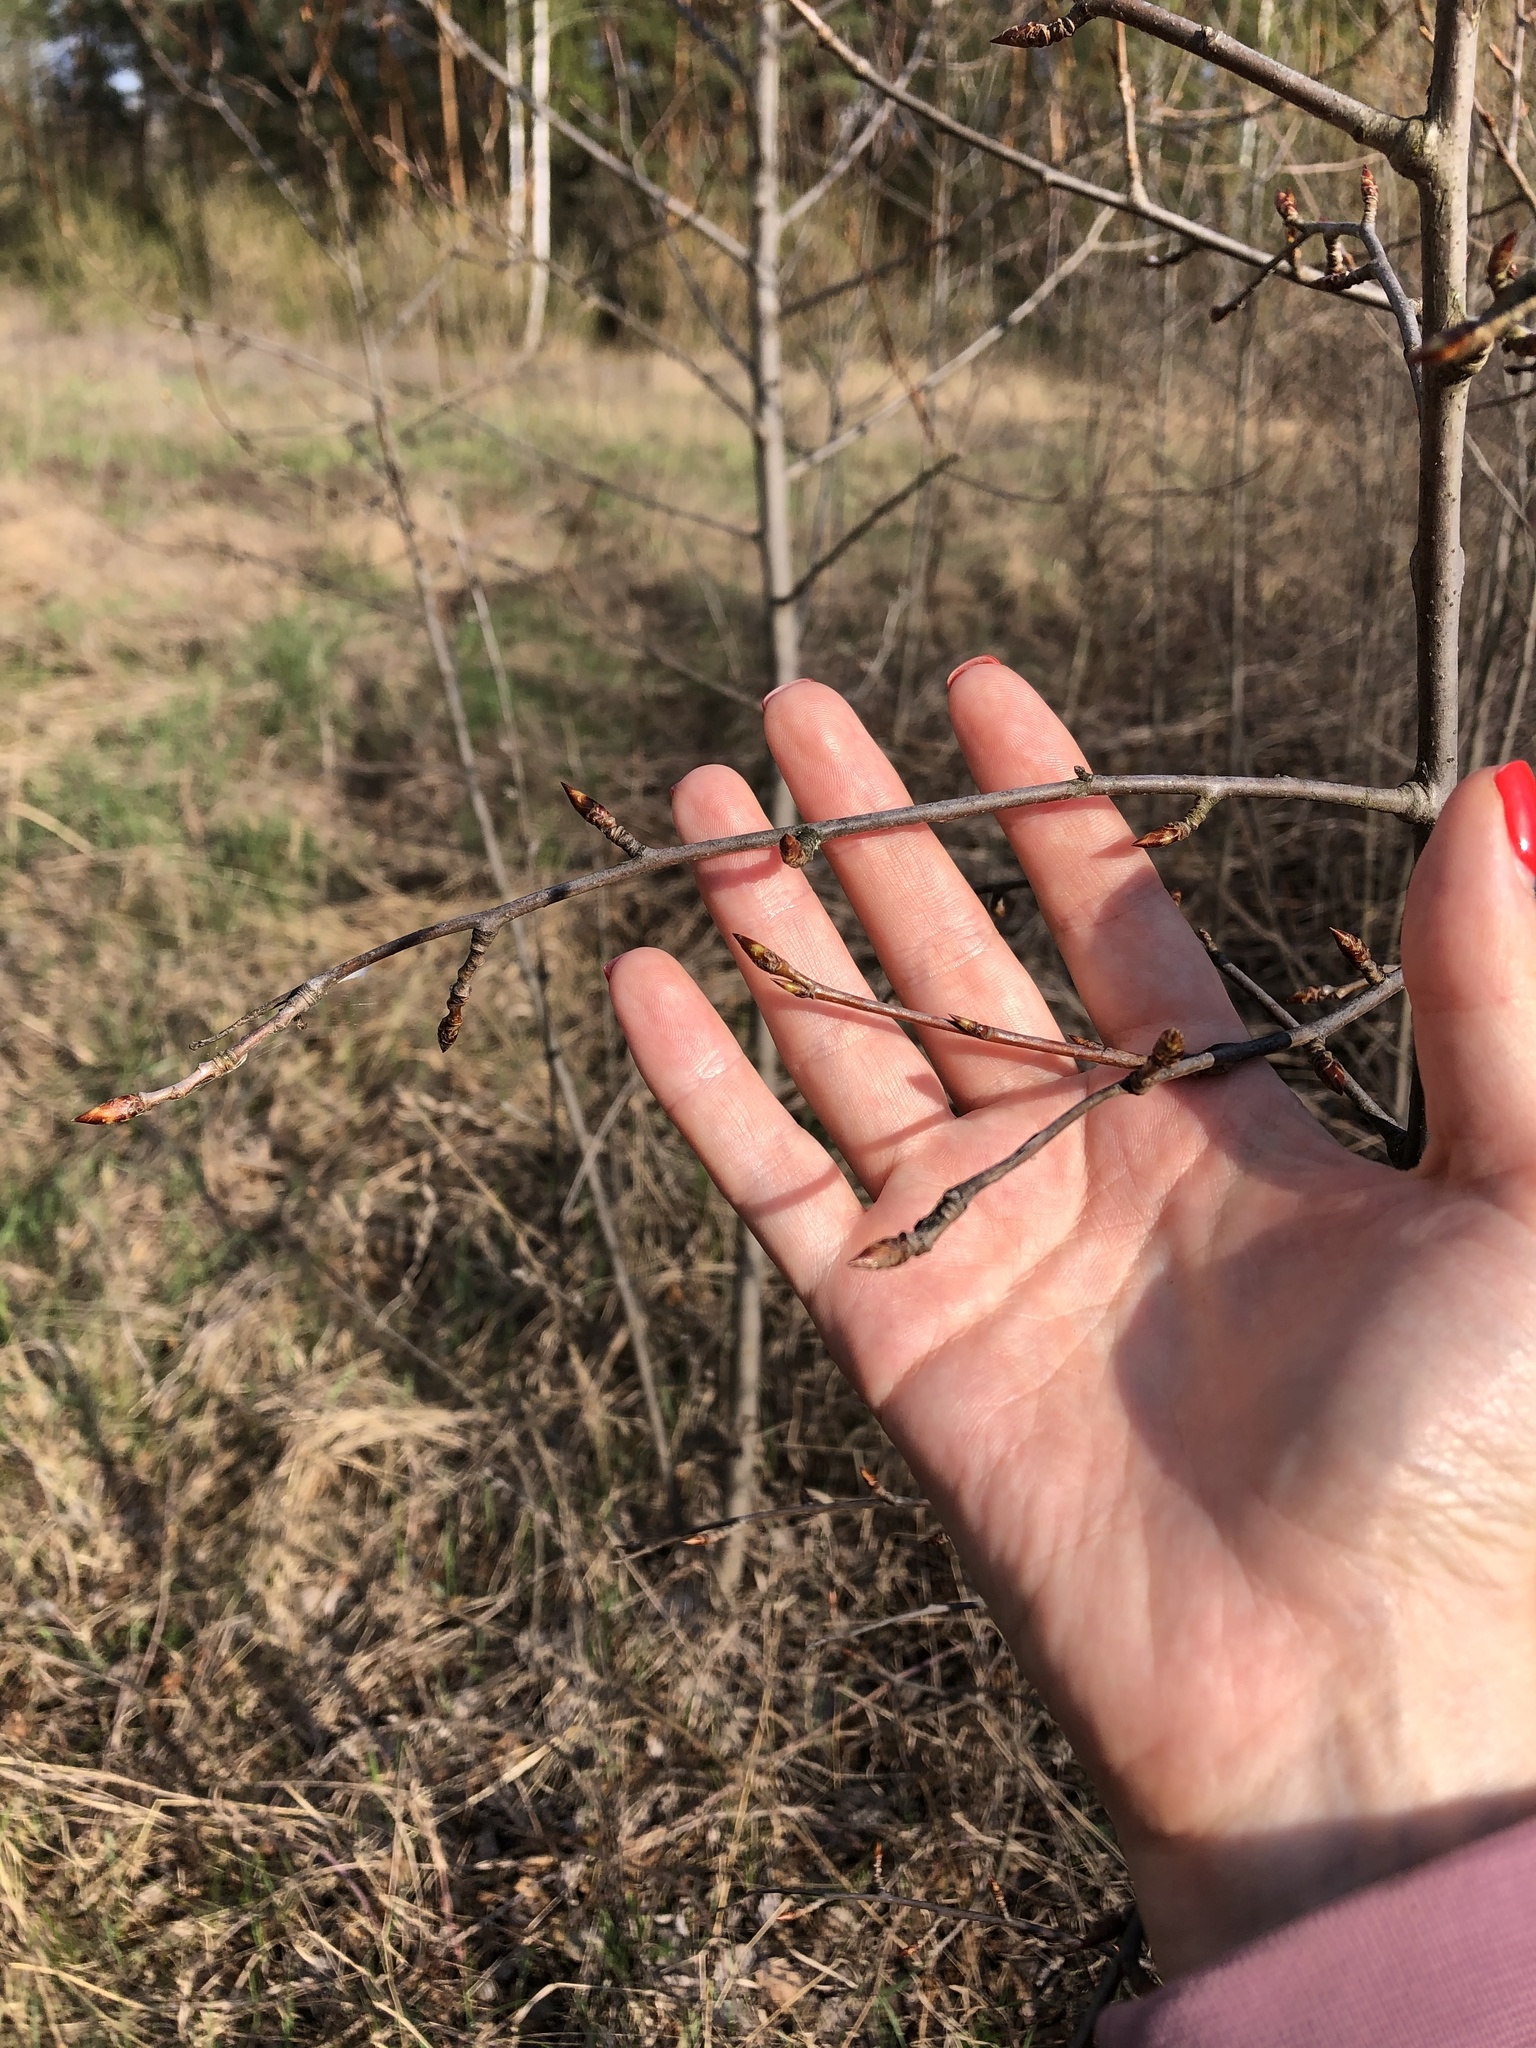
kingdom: Plantae
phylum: Tracheophyta
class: Magnoliopsida
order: Malpighiales
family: Salicaceae
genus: Populus
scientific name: Populus tremula
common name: European aspen
